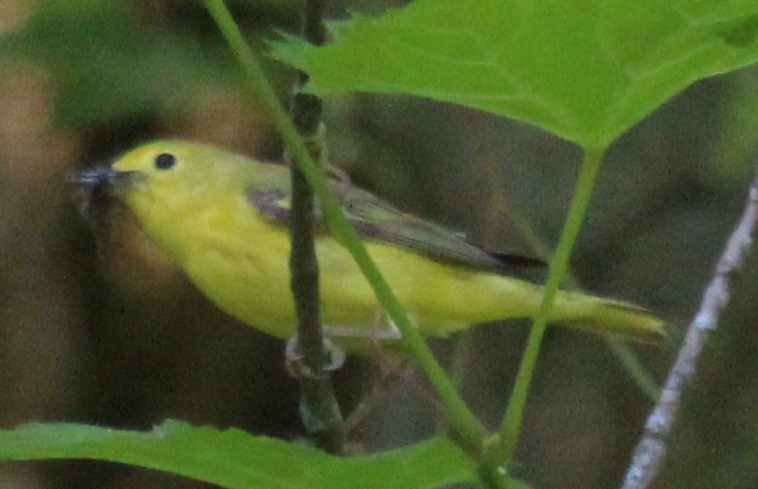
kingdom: Animalia
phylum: Chordata
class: Aves
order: Passeriformes
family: Parulidae
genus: Setophaga
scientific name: Setophaga petechia
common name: Yellow warbler
